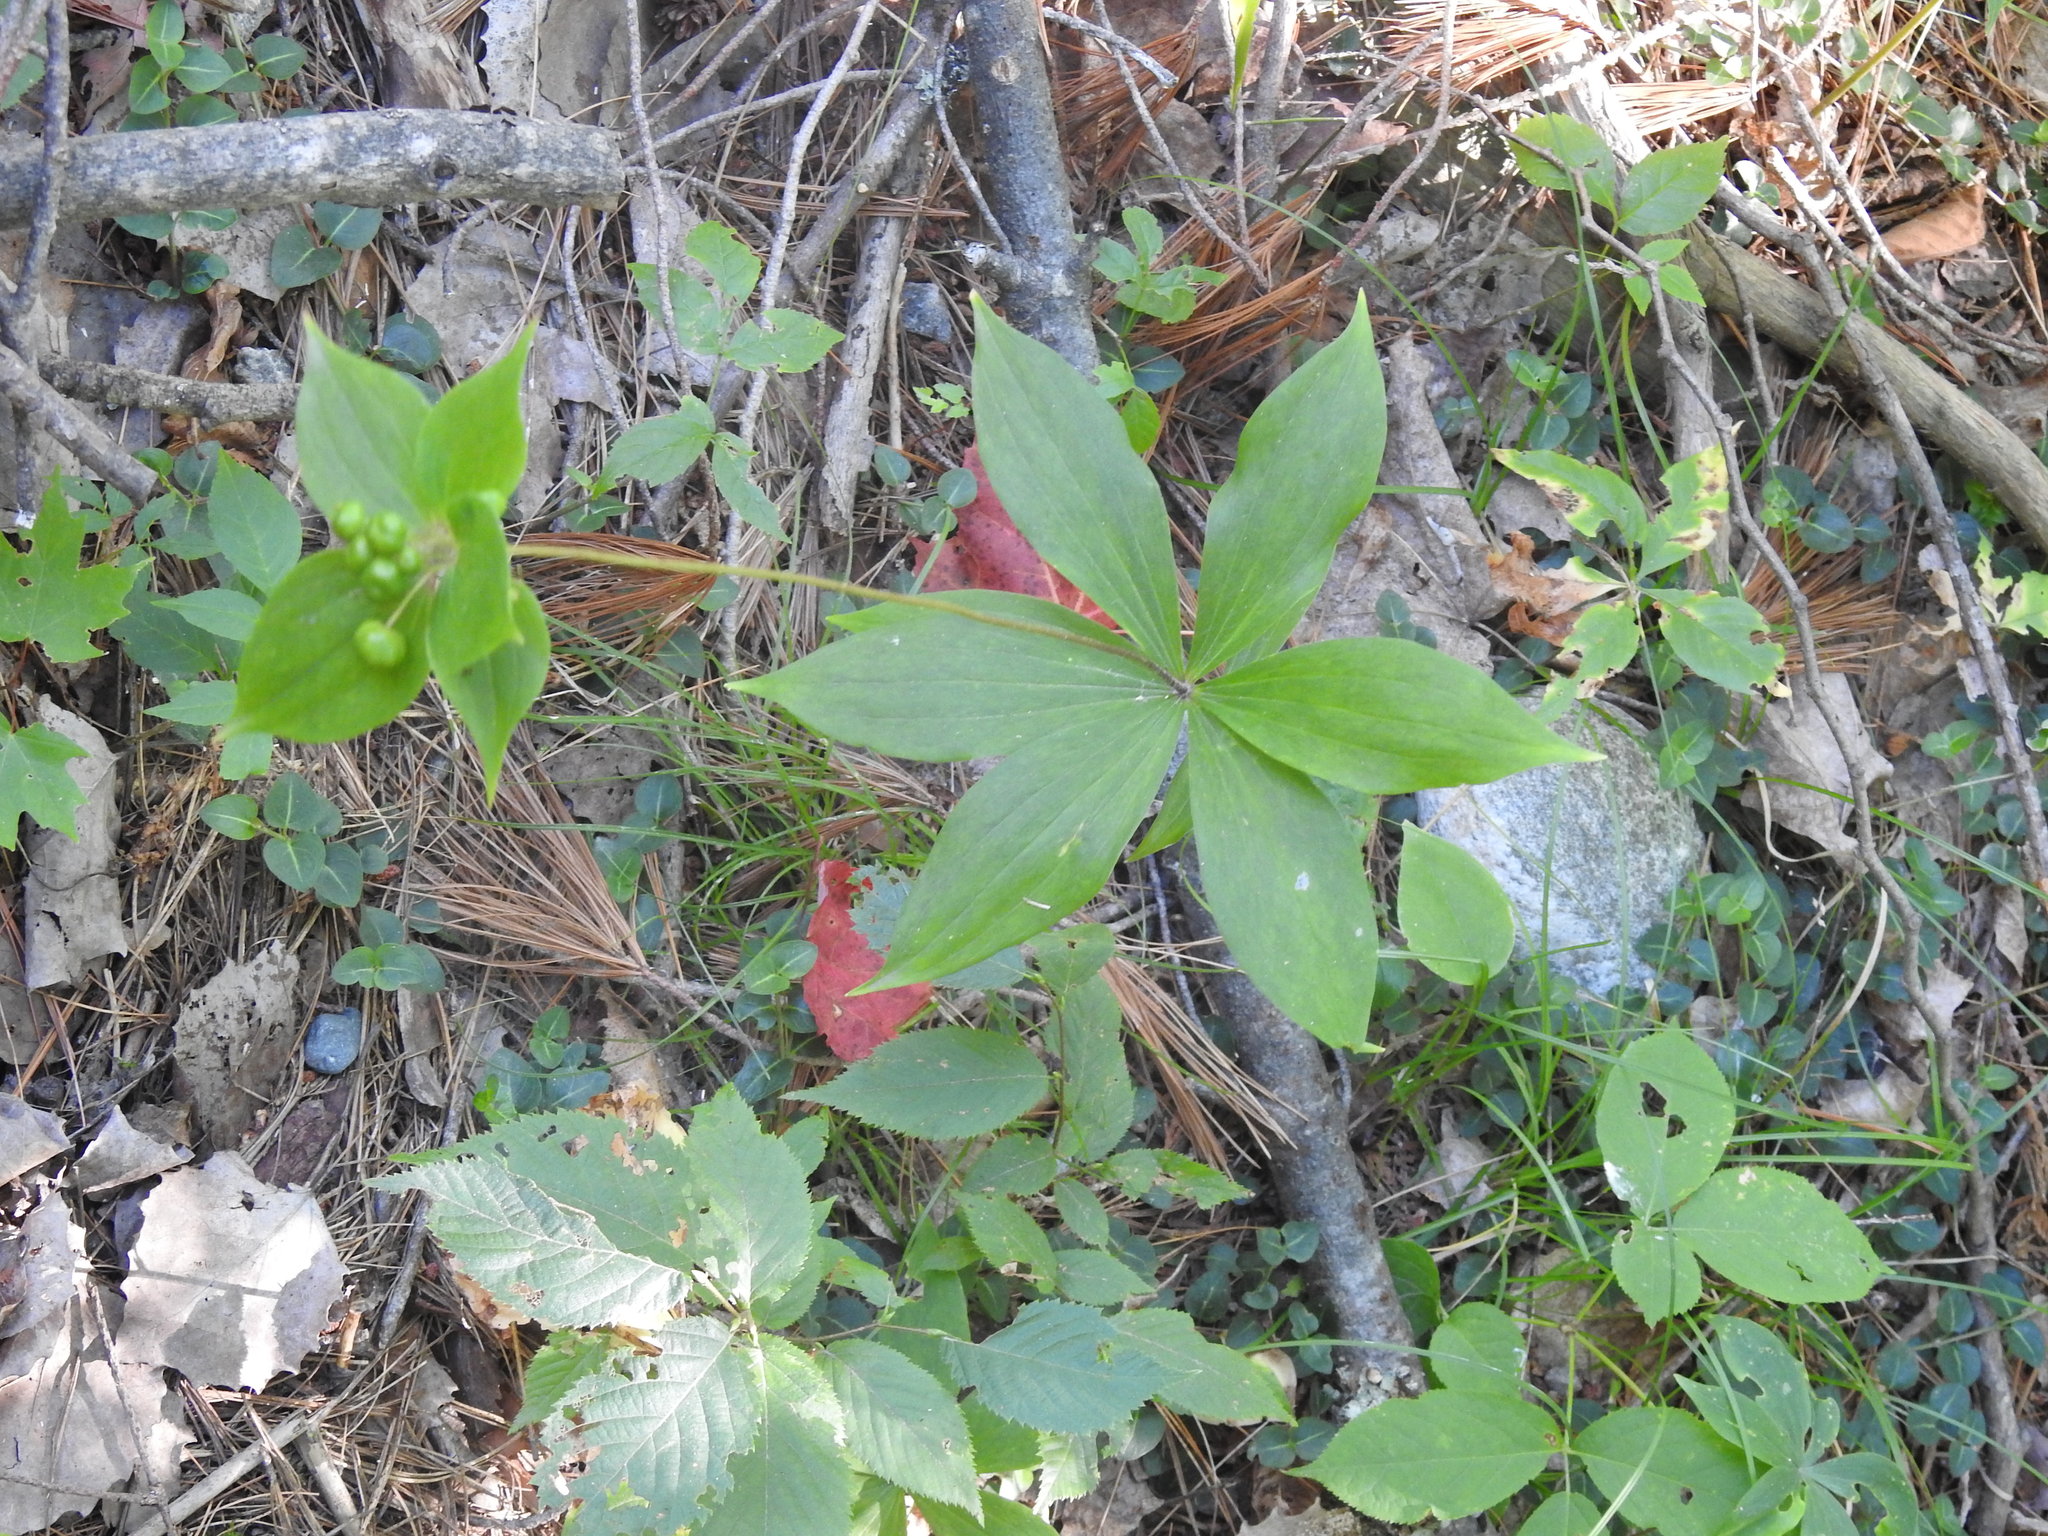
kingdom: Plantae
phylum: Tracheophyta
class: Liliopsida
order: Liliales
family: Liliaceae
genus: Medeola
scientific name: Medeola virginiana
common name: Indian cucumber-root
